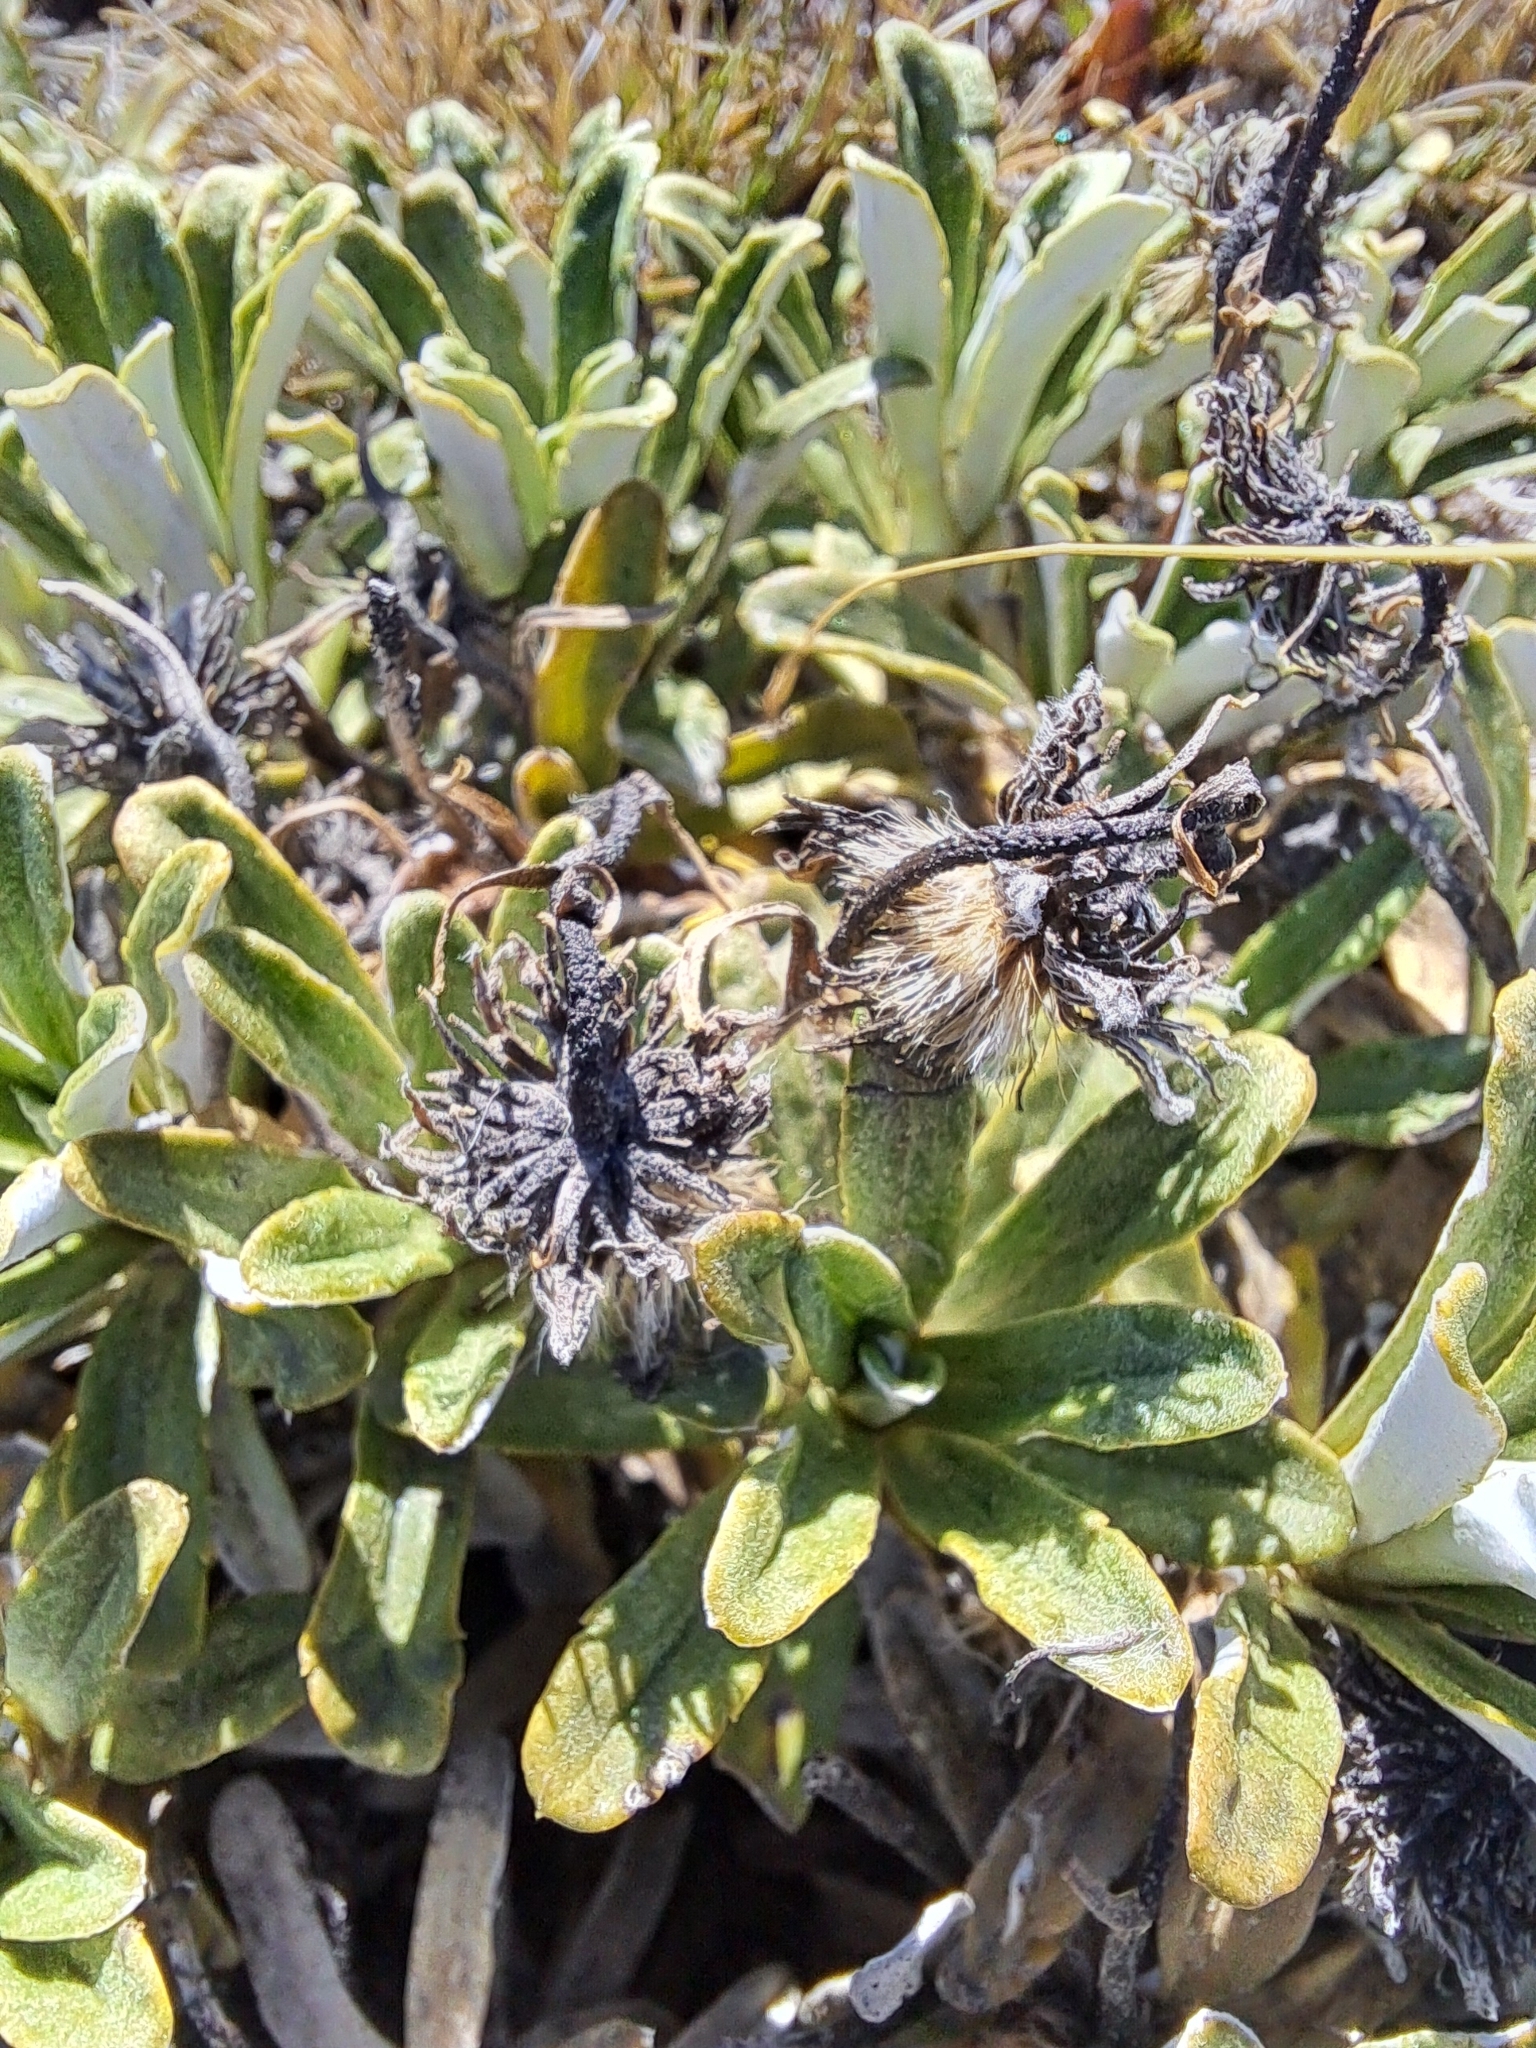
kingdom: Plantae
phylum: Tracheophyta
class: Magnoliopsida
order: Asterales
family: Asteraceae
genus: Celmisia
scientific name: Celmisia angustifolia
